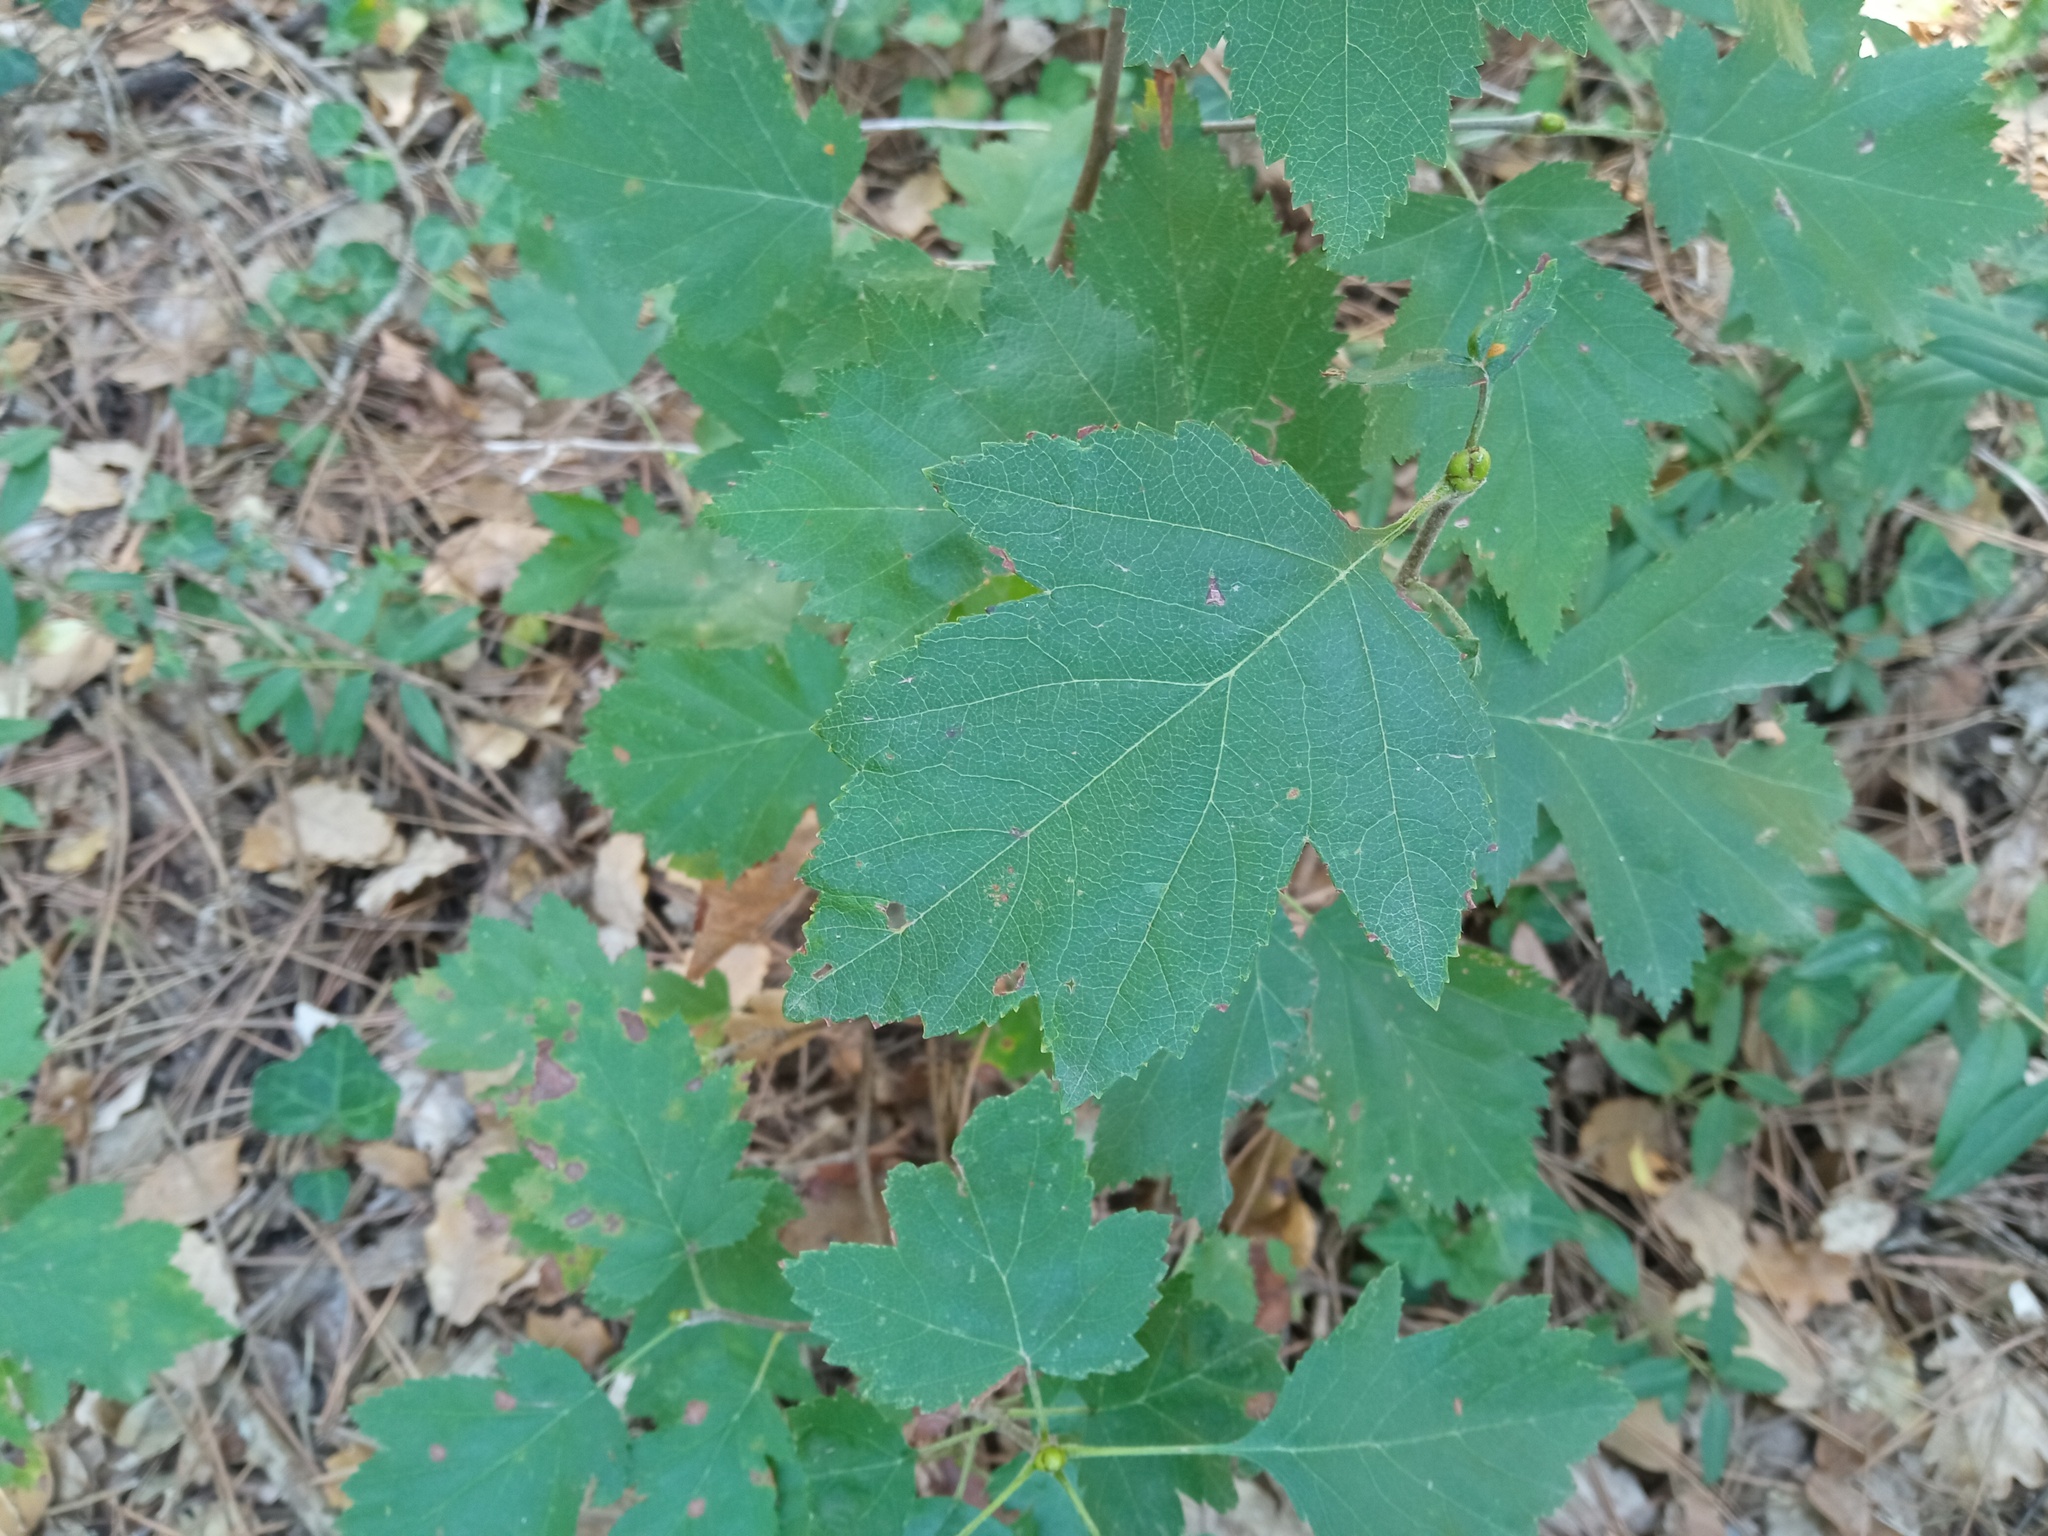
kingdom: Plantae
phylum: Tracheophyta
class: Magnoliopsida
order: Rosales
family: Rosaceae
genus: Torminalis
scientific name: Torminalis glaberrima
